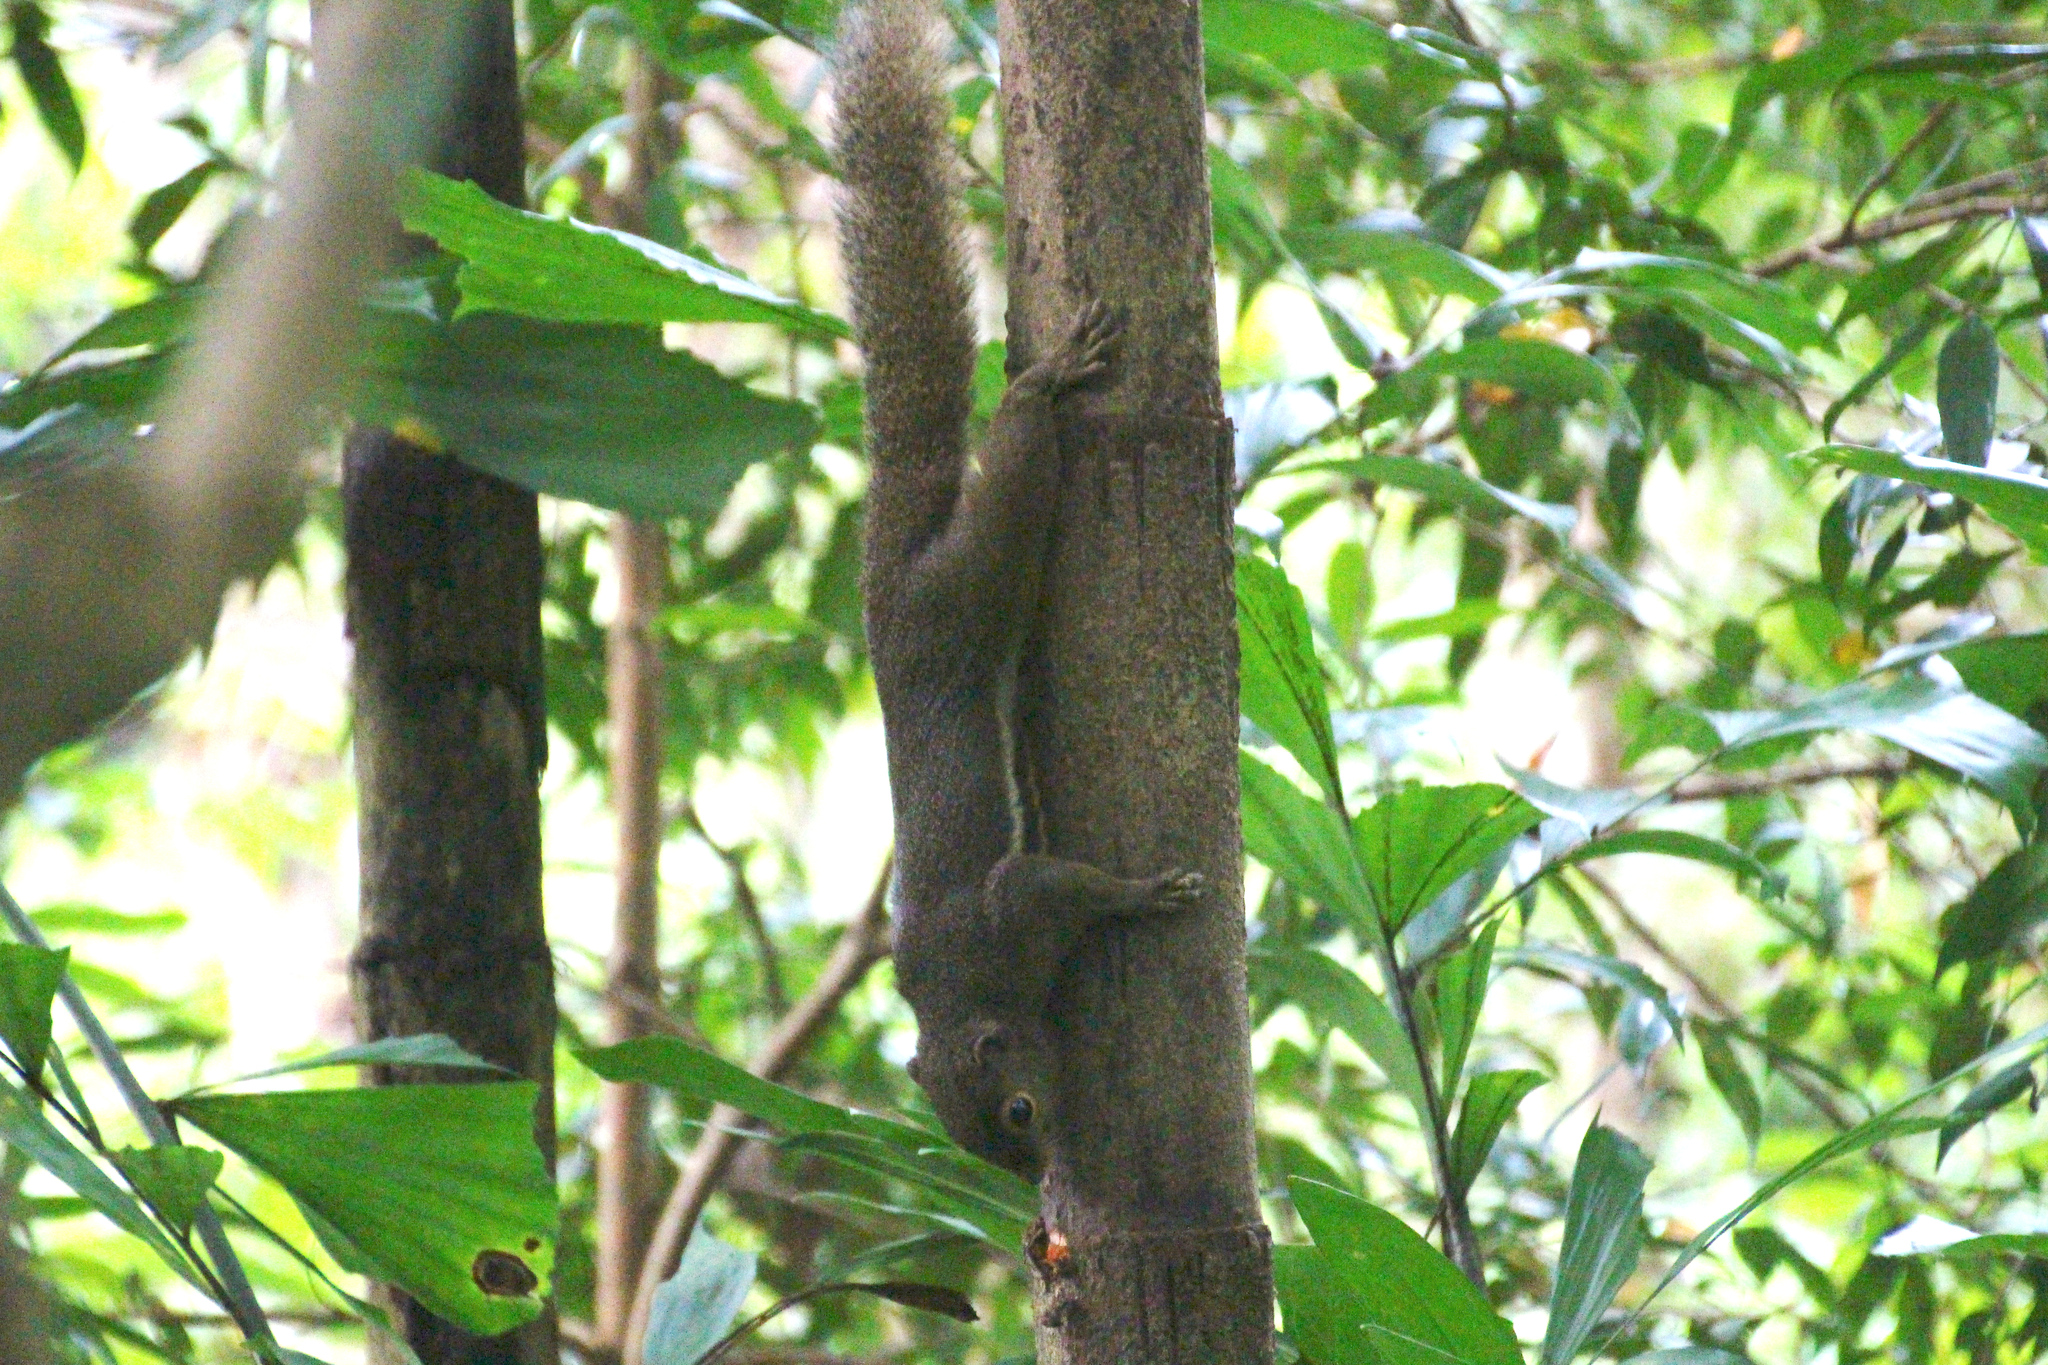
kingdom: Animalia
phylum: Chordata
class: Mammalia
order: Rodentia
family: Sciuridae
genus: Callosciurus
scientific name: Callosciurus notatus
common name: Plantain squirrel
